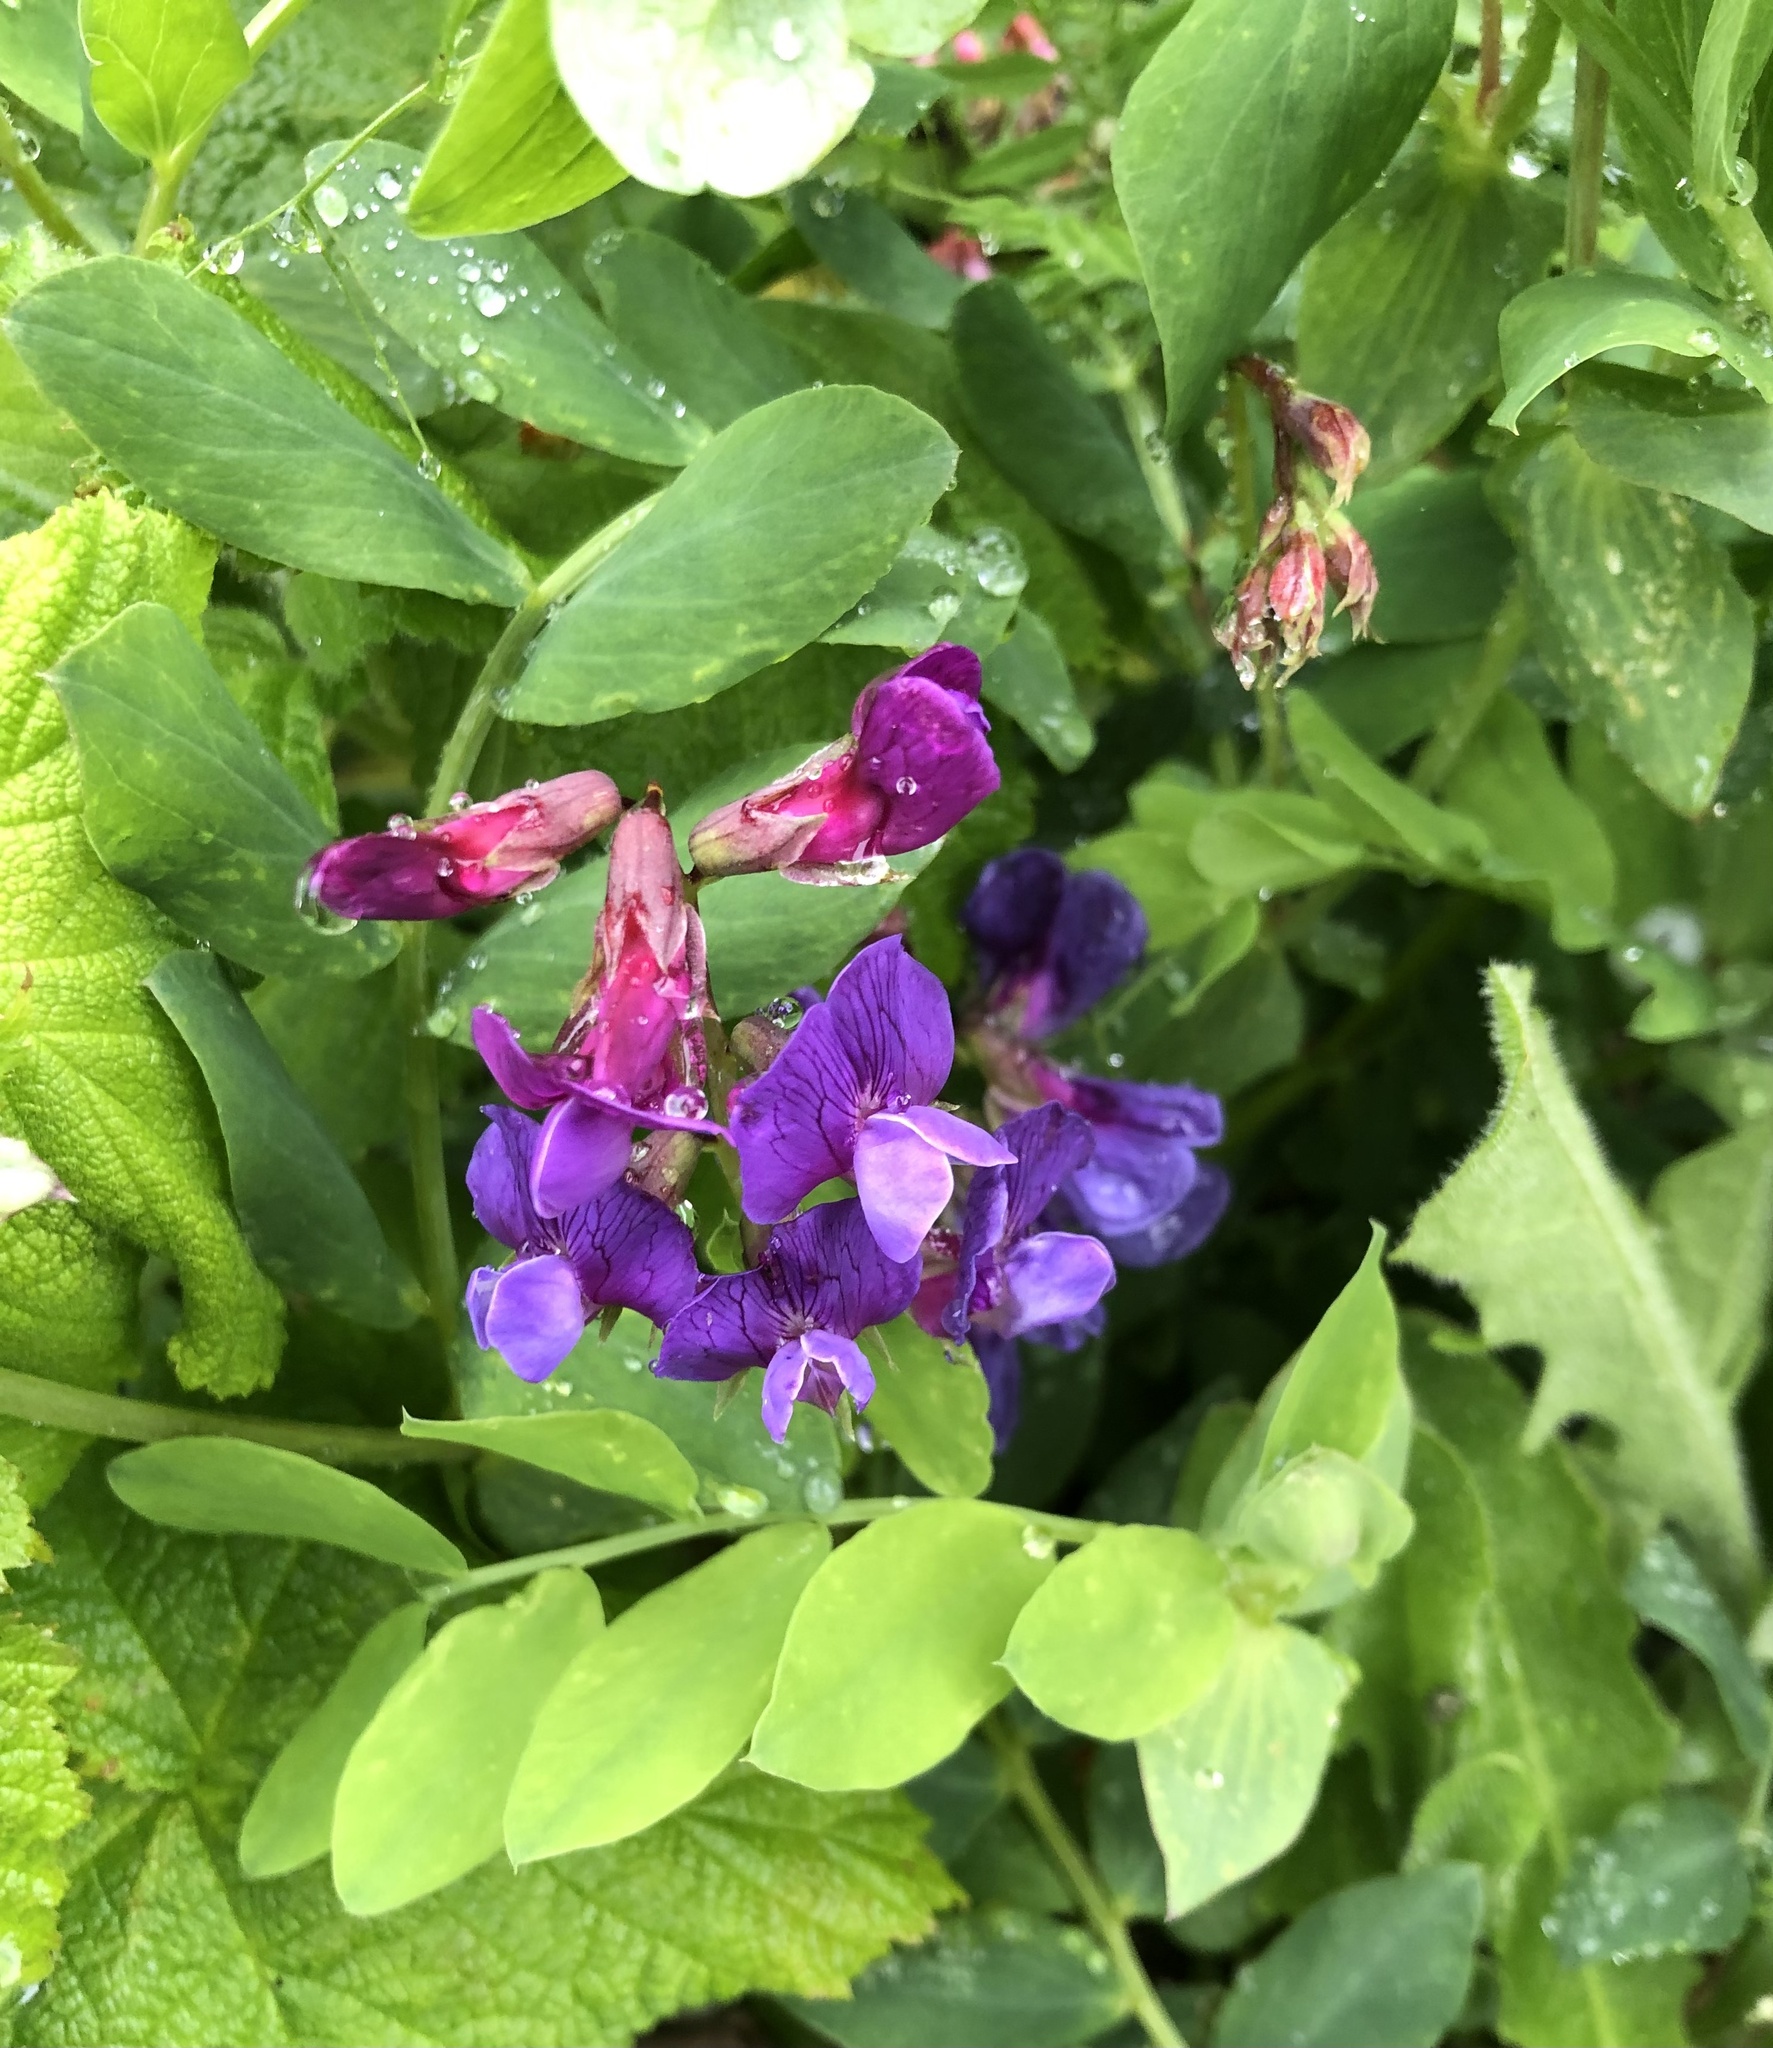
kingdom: Plantae
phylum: Tracheophyta
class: Magnoliopsida
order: Fabales
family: Fabaceae
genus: Lathyrus
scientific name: Lathyrus japonicus
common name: Sea pea
